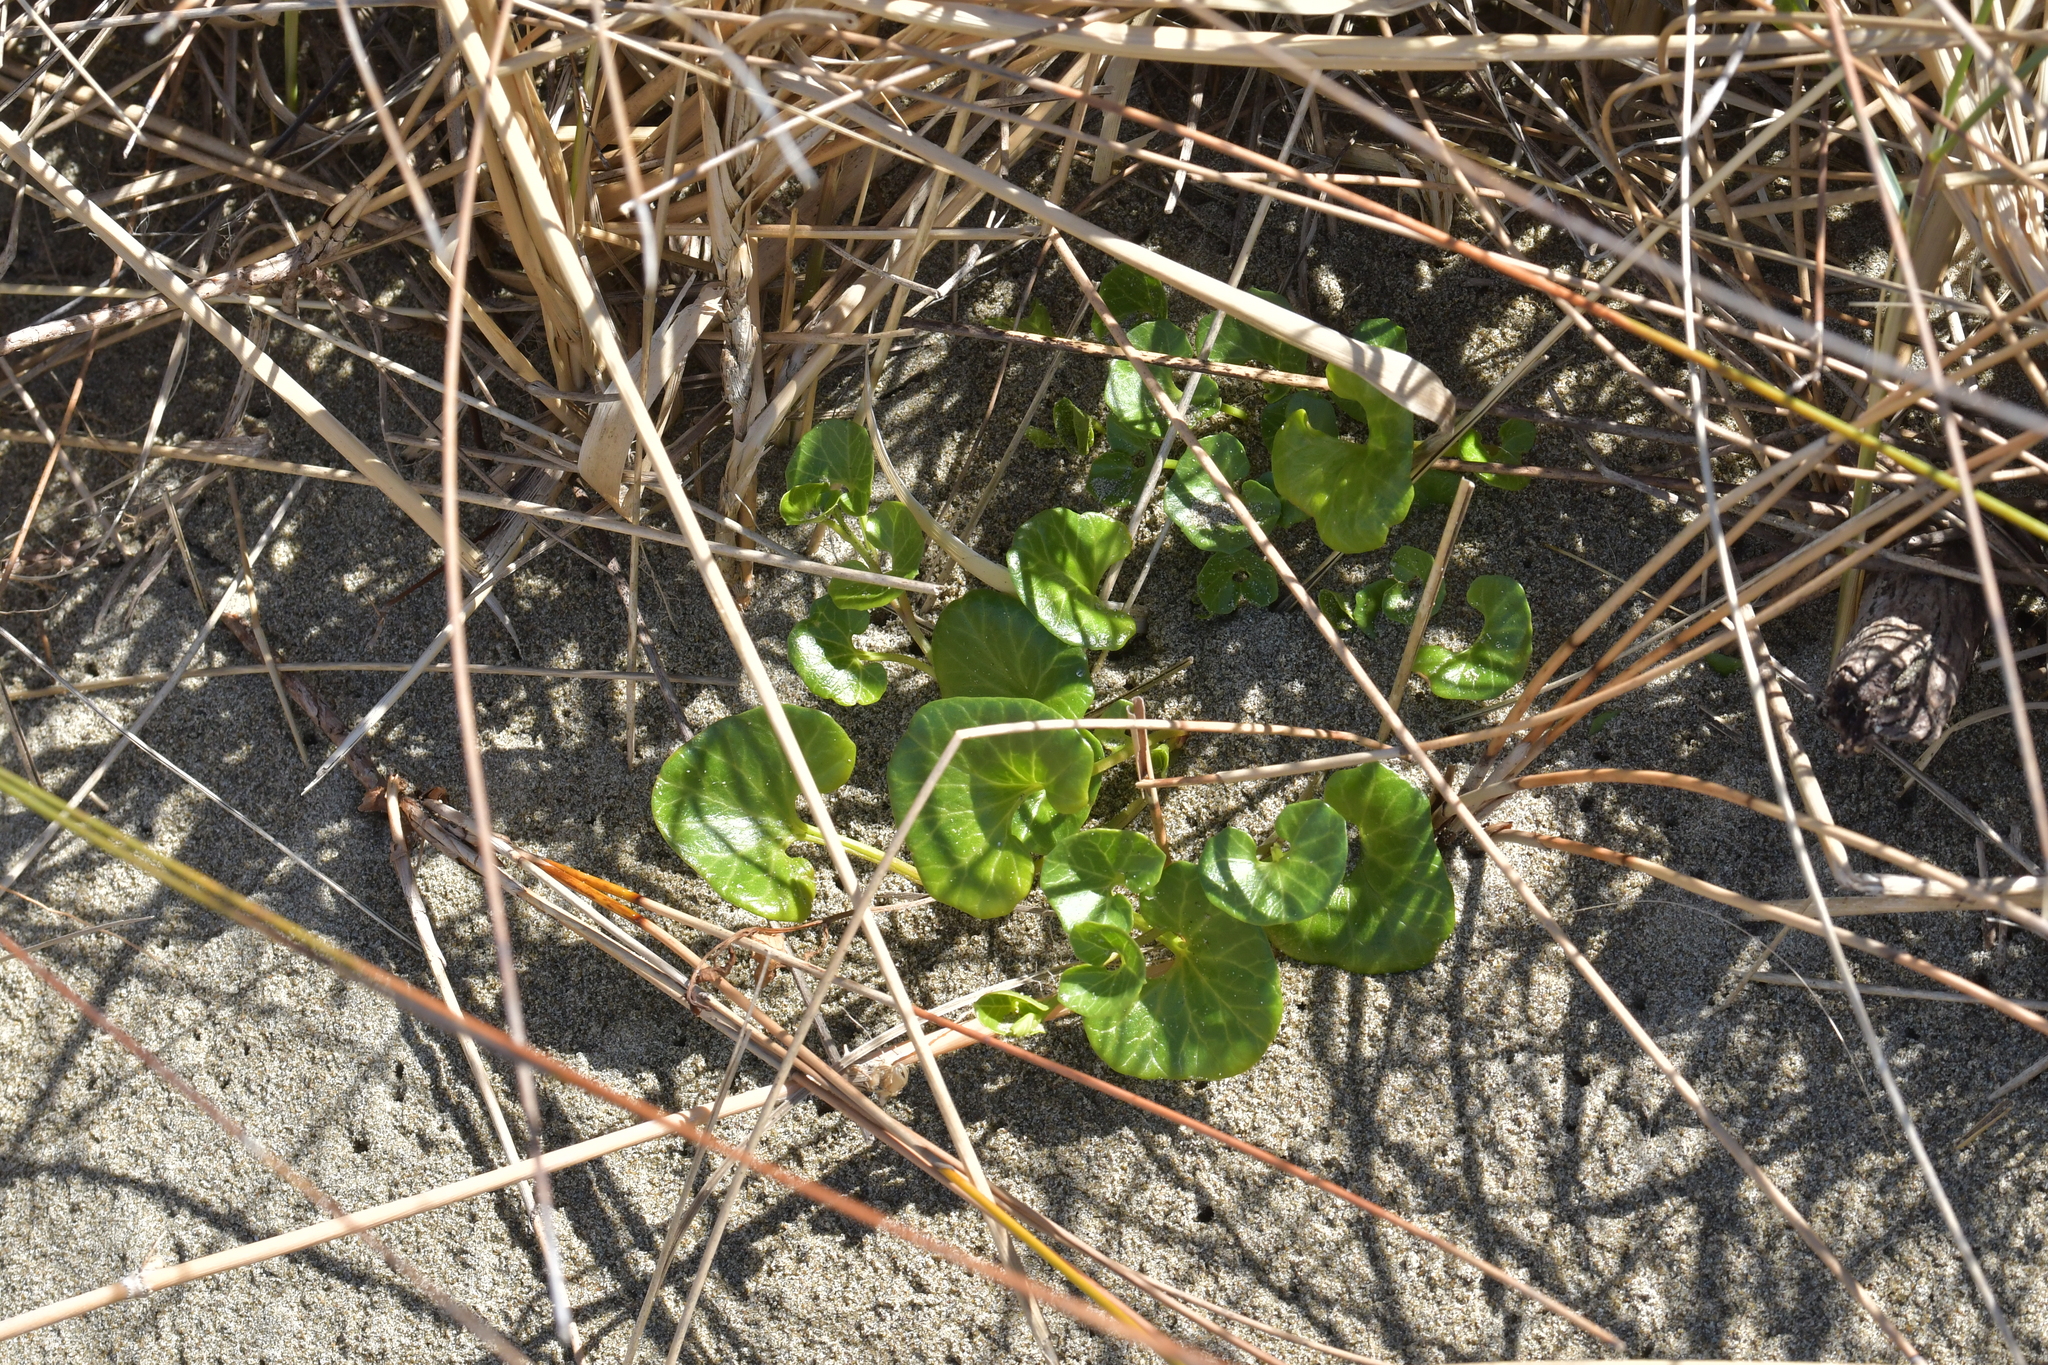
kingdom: Plantae
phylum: Tracheophyta
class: Magnoliopsida
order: Solanales
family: Convolvulaceae
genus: Calystegia
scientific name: Calystegia soldanella
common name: Sea bindweed
